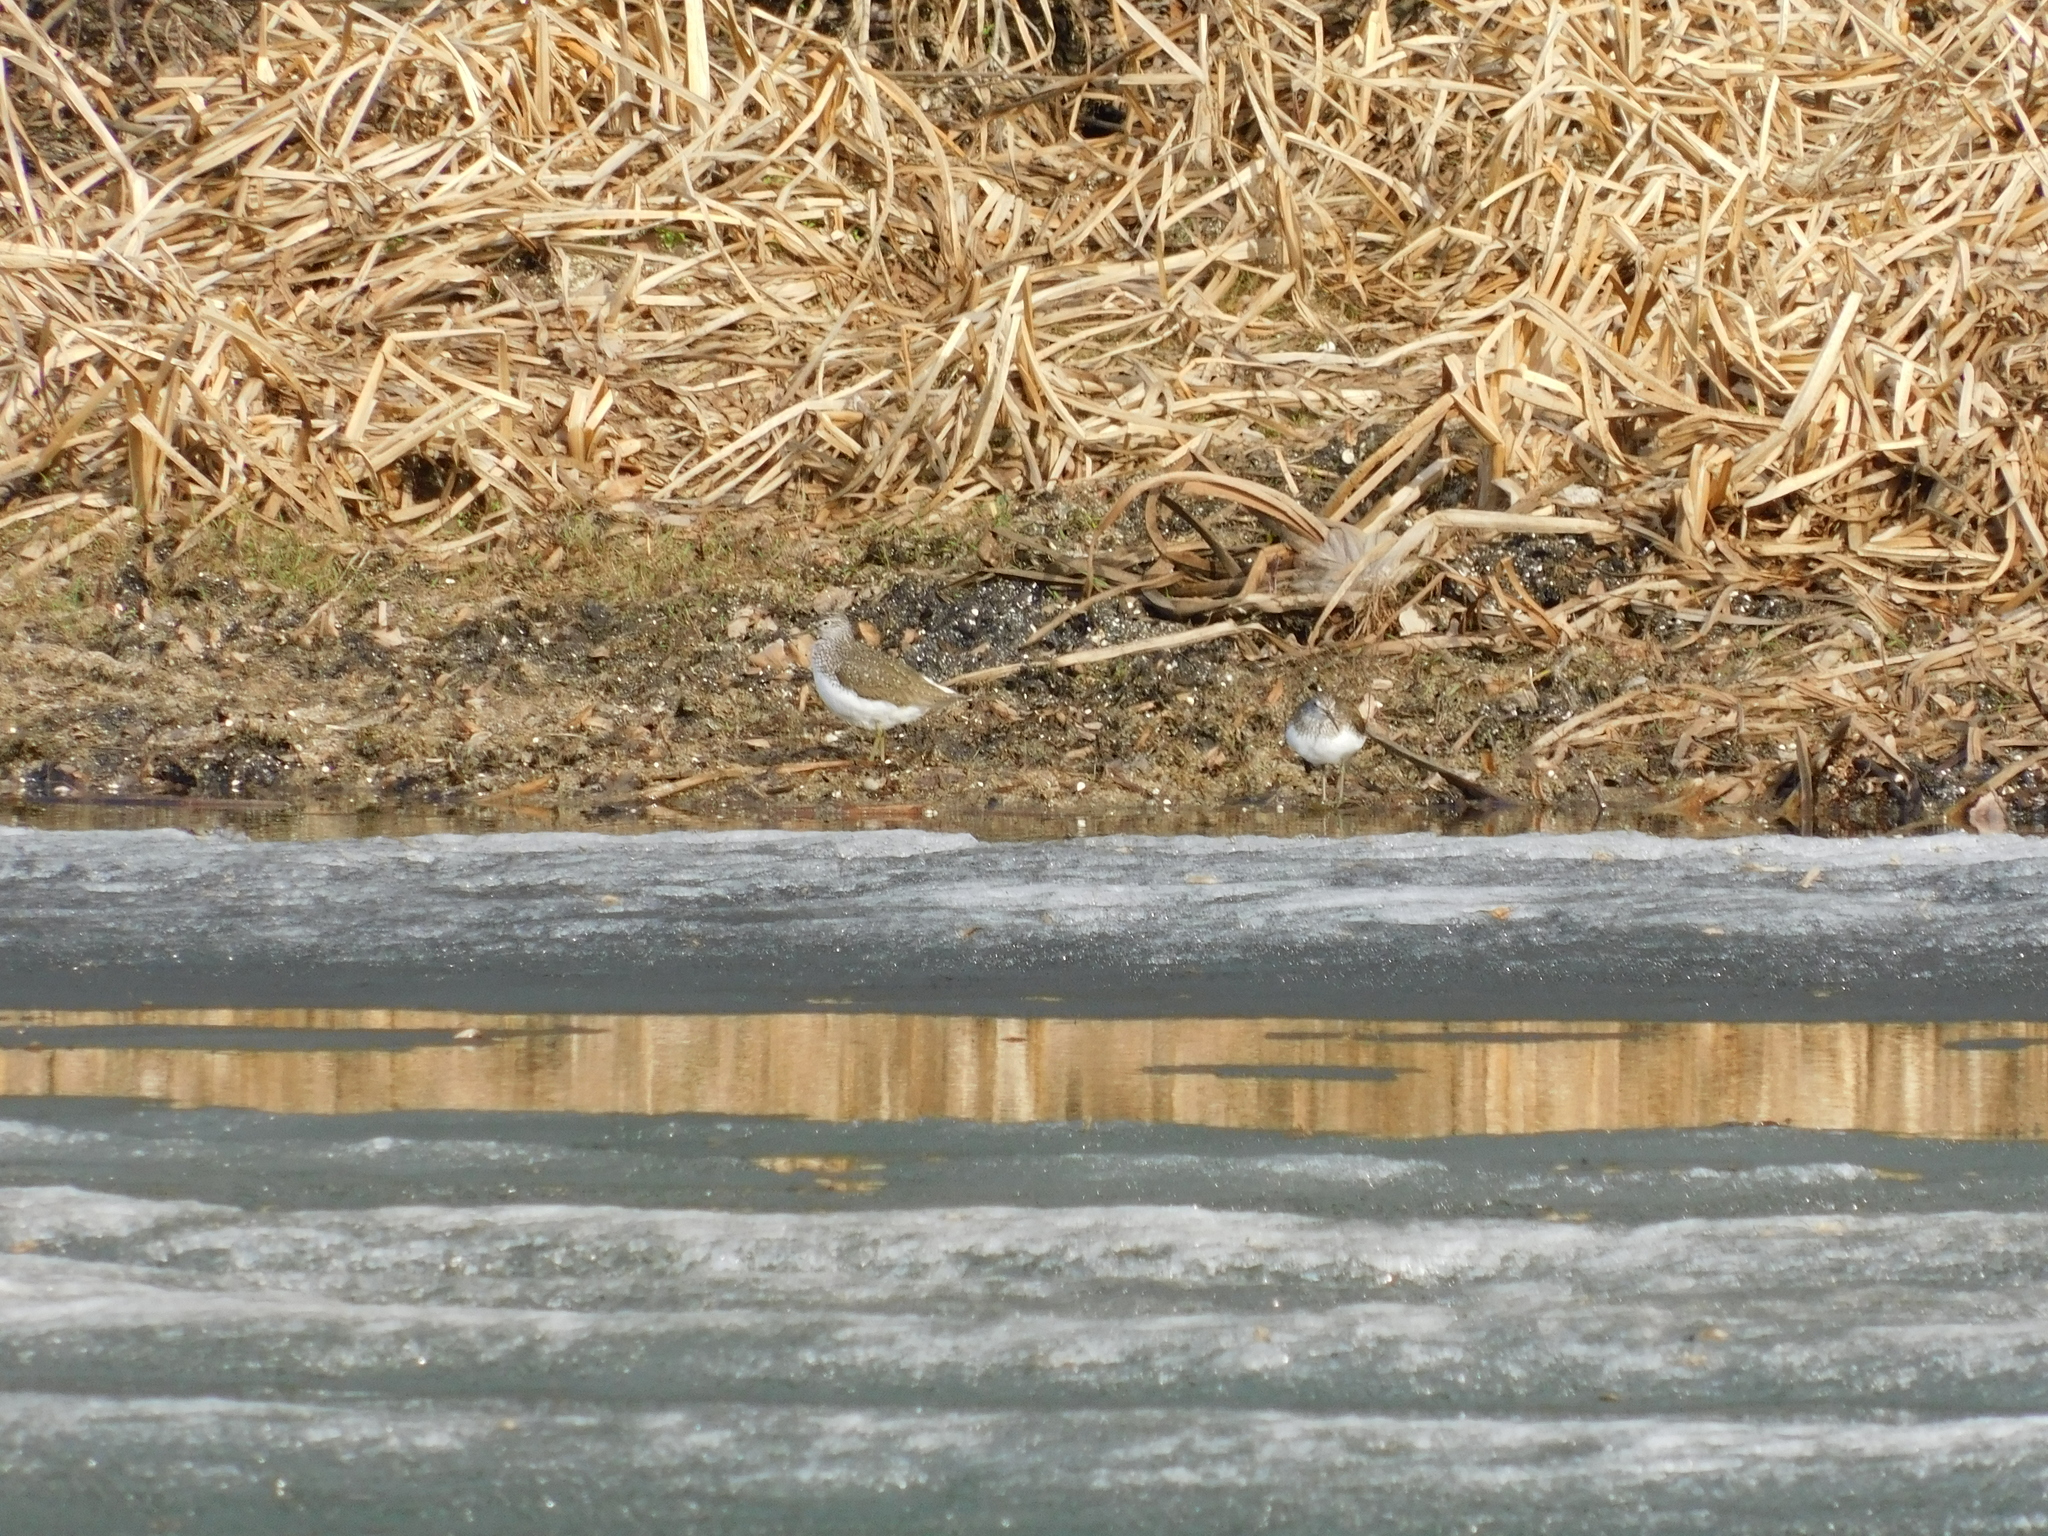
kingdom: Animalia
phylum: Chordata
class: Aves
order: Charadriiformes
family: Scolopacidae
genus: Tringa
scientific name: Tringa ochropus
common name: Green sandpiper
